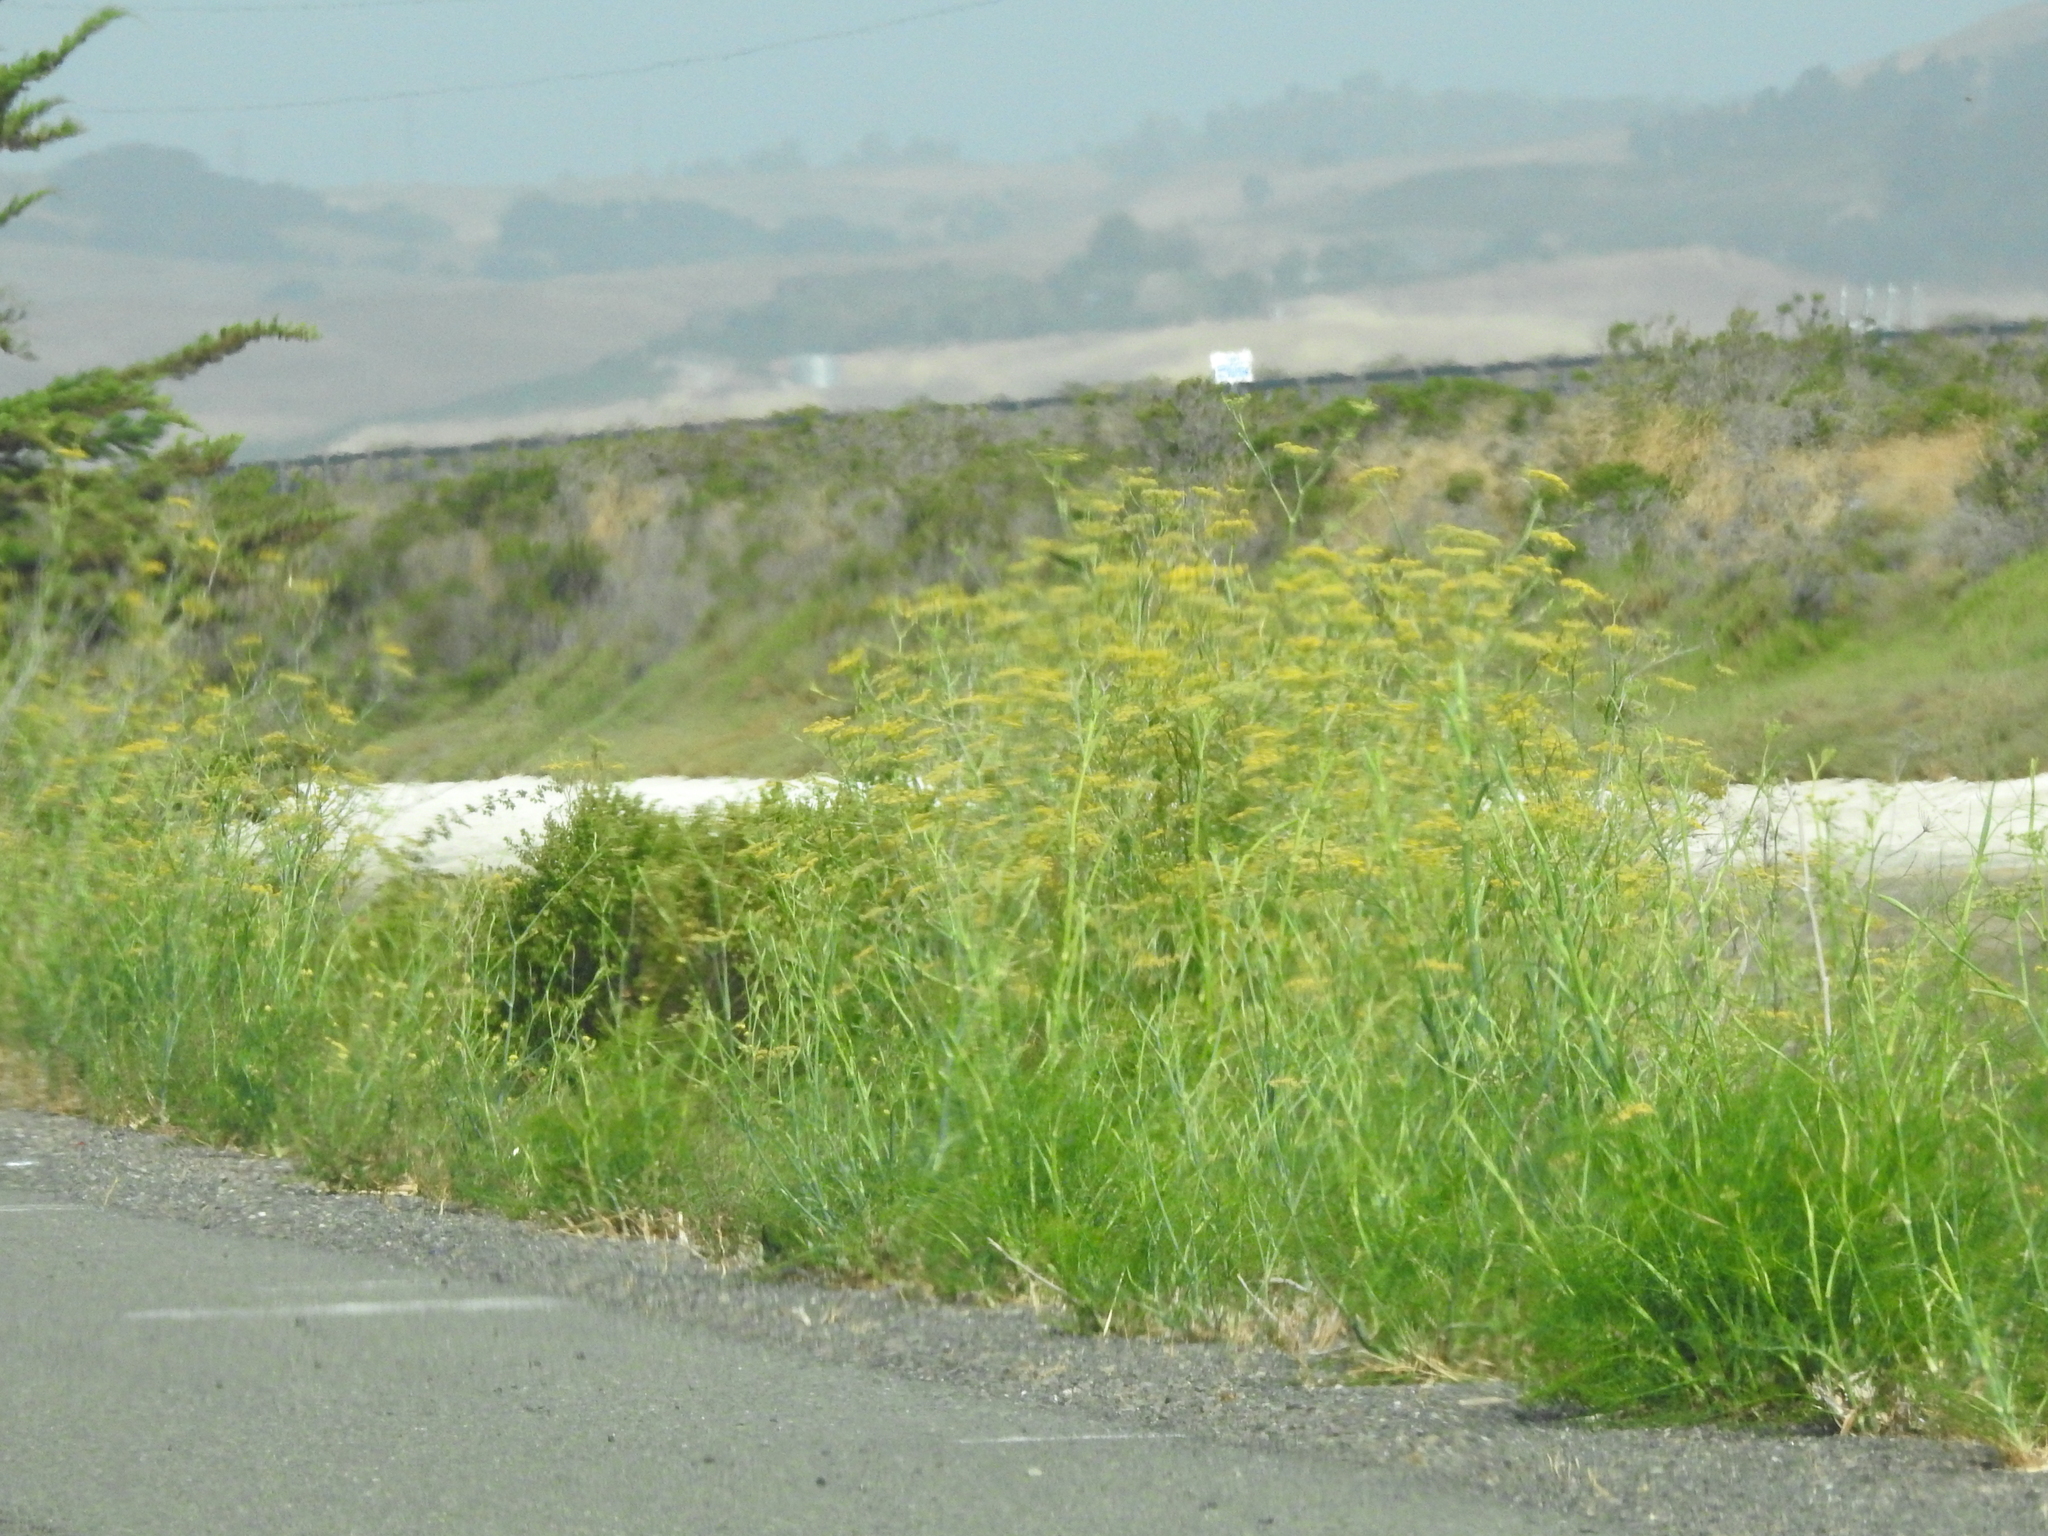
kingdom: Plantae
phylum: Tracheophyta
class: Magnoliopsida
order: Apiales
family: Apiaceae
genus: Foeniculum
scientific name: Foeniculum vulgare
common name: Fennel
